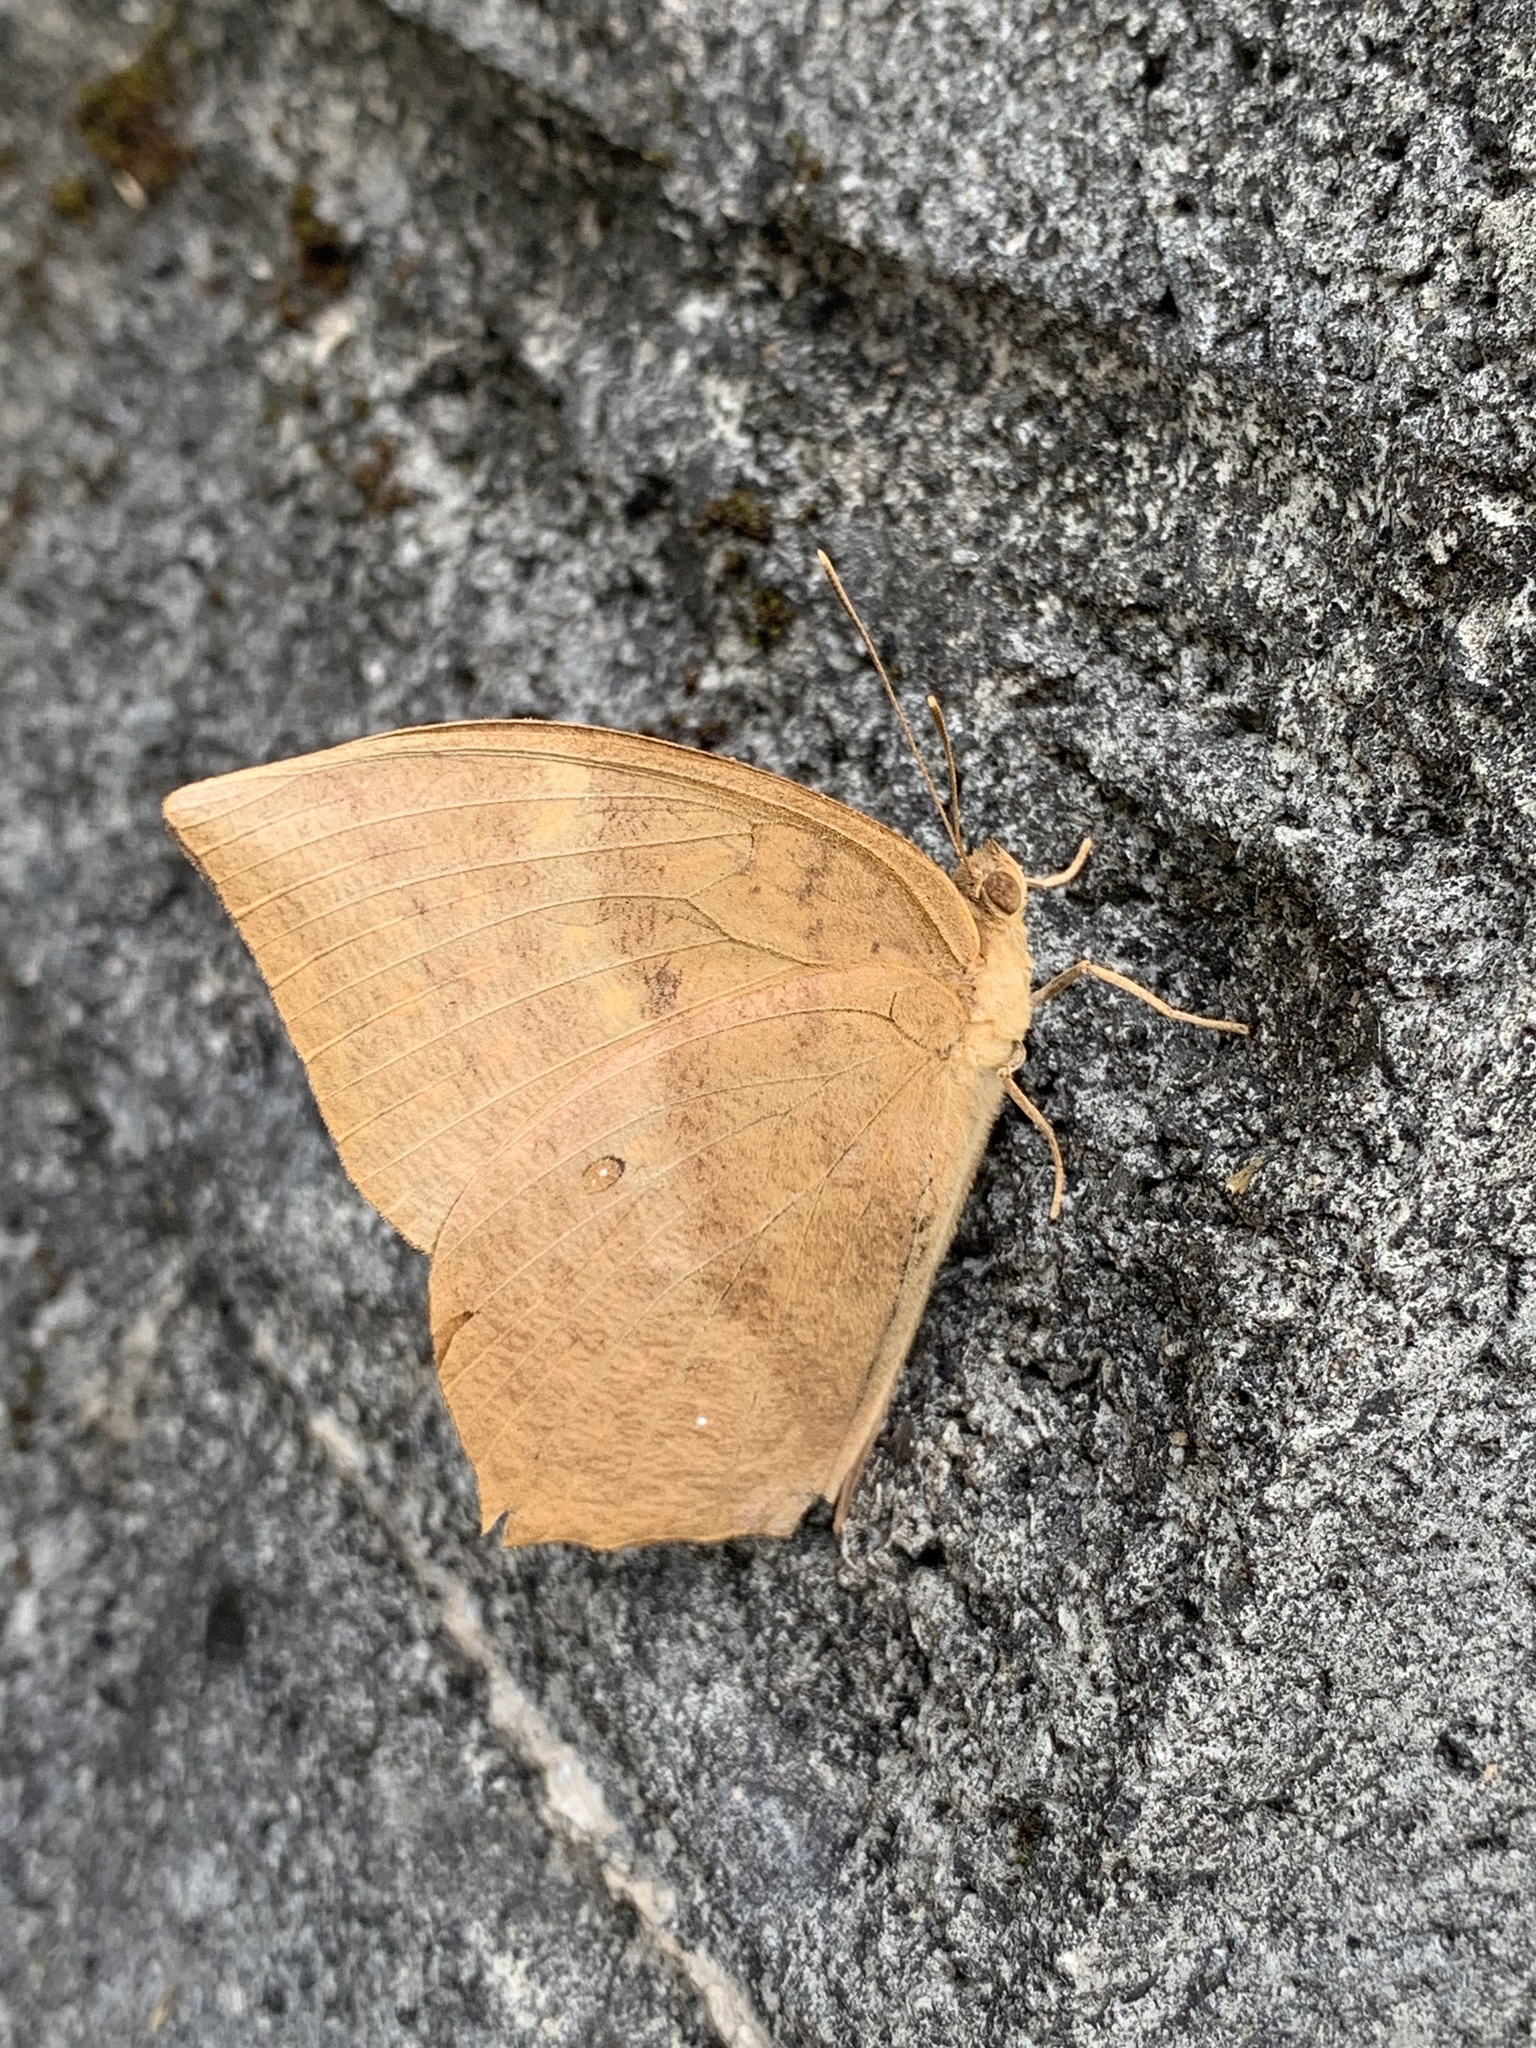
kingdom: Animalia
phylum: Arthropoda
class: Insecta
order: Lepidoptera
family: Nymphalidae
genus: Discophora
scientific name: Discophora sondaica
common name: Common duffer
